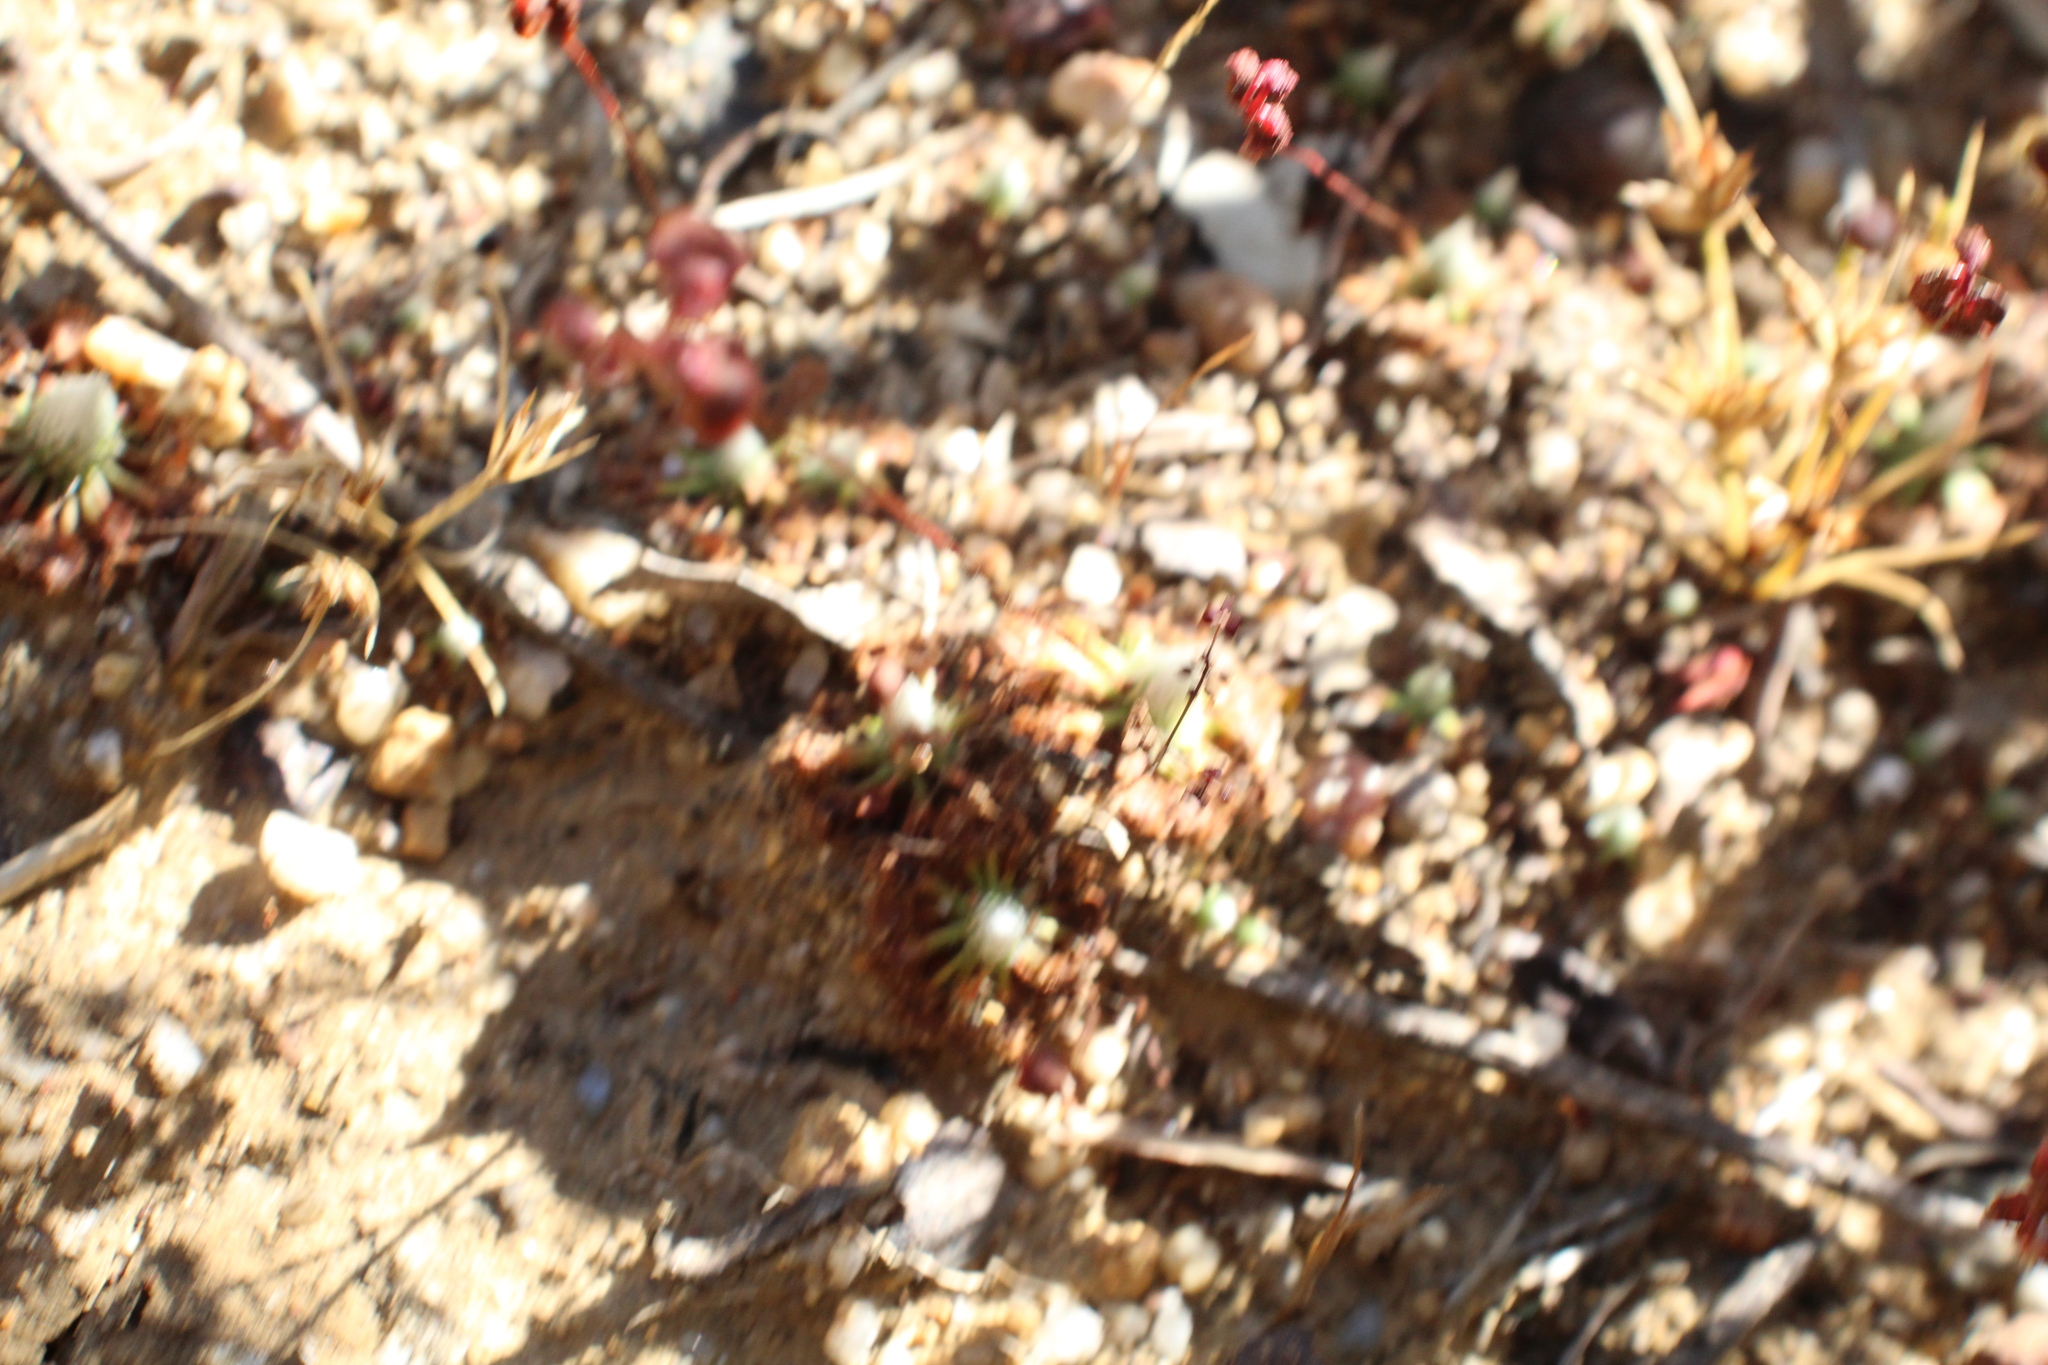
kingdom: Plantae
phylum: Tracheophyta
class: Magnoliopsida
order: Caryophyllales
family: Droseraceae
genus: Drosera
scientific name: Drosera miniata
